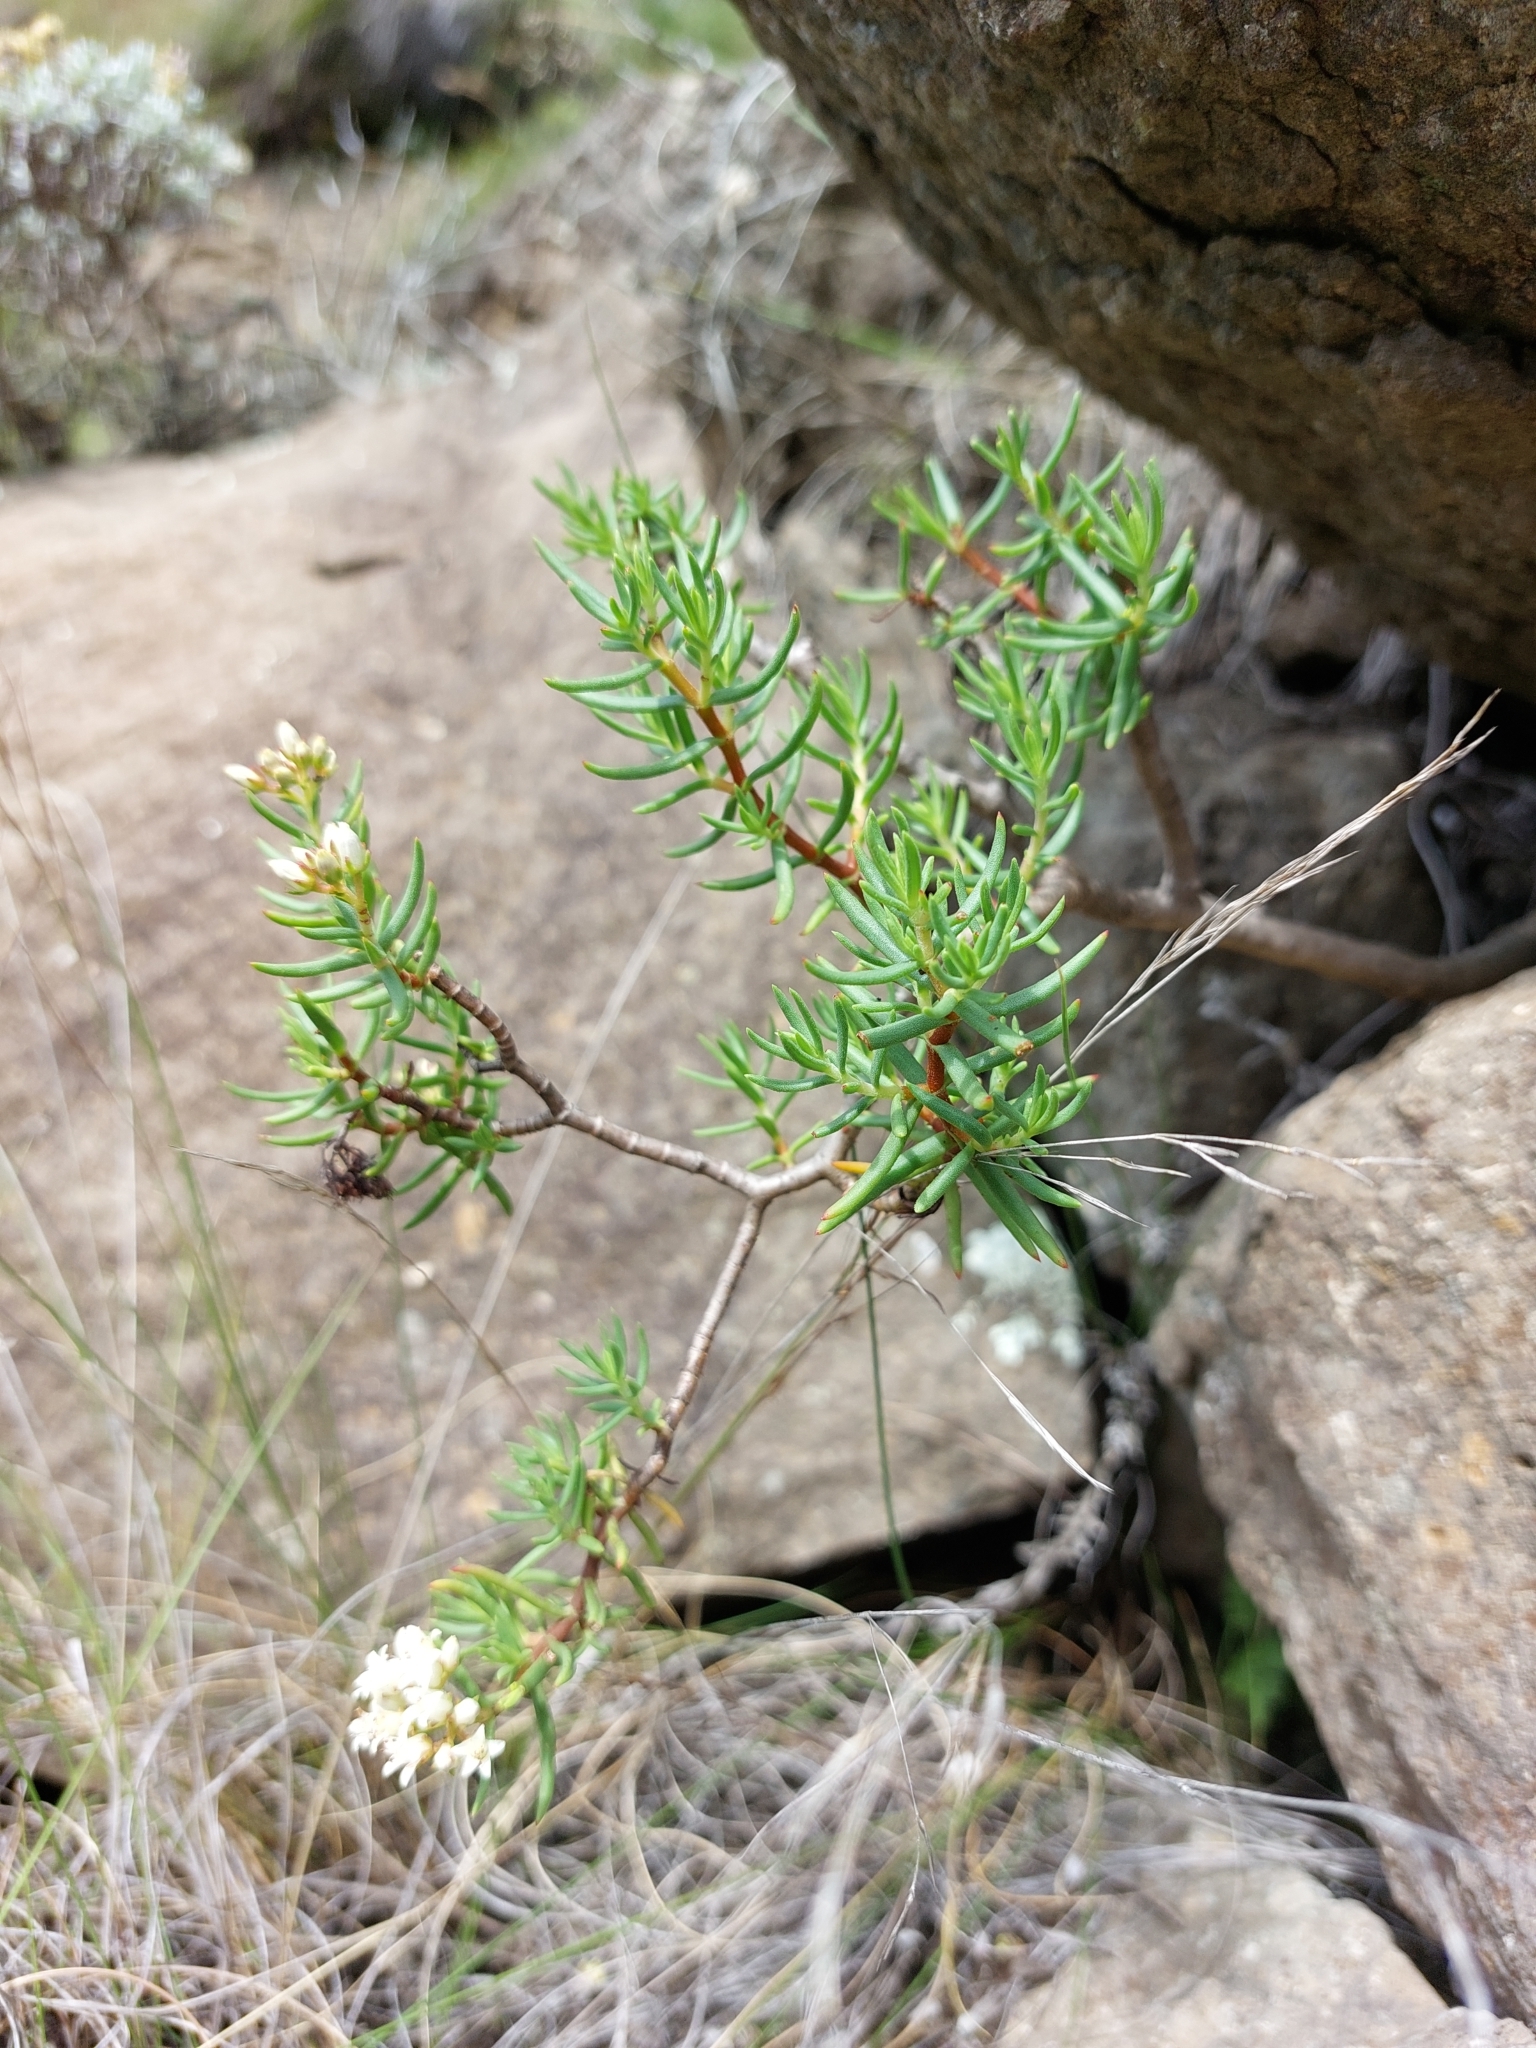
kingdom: Plantae
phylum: Tracheophyta
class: Magnoliopsida
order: Saxifragales
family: Crassulaceae
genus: Crassula
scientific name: Crassula sarcocaulis
